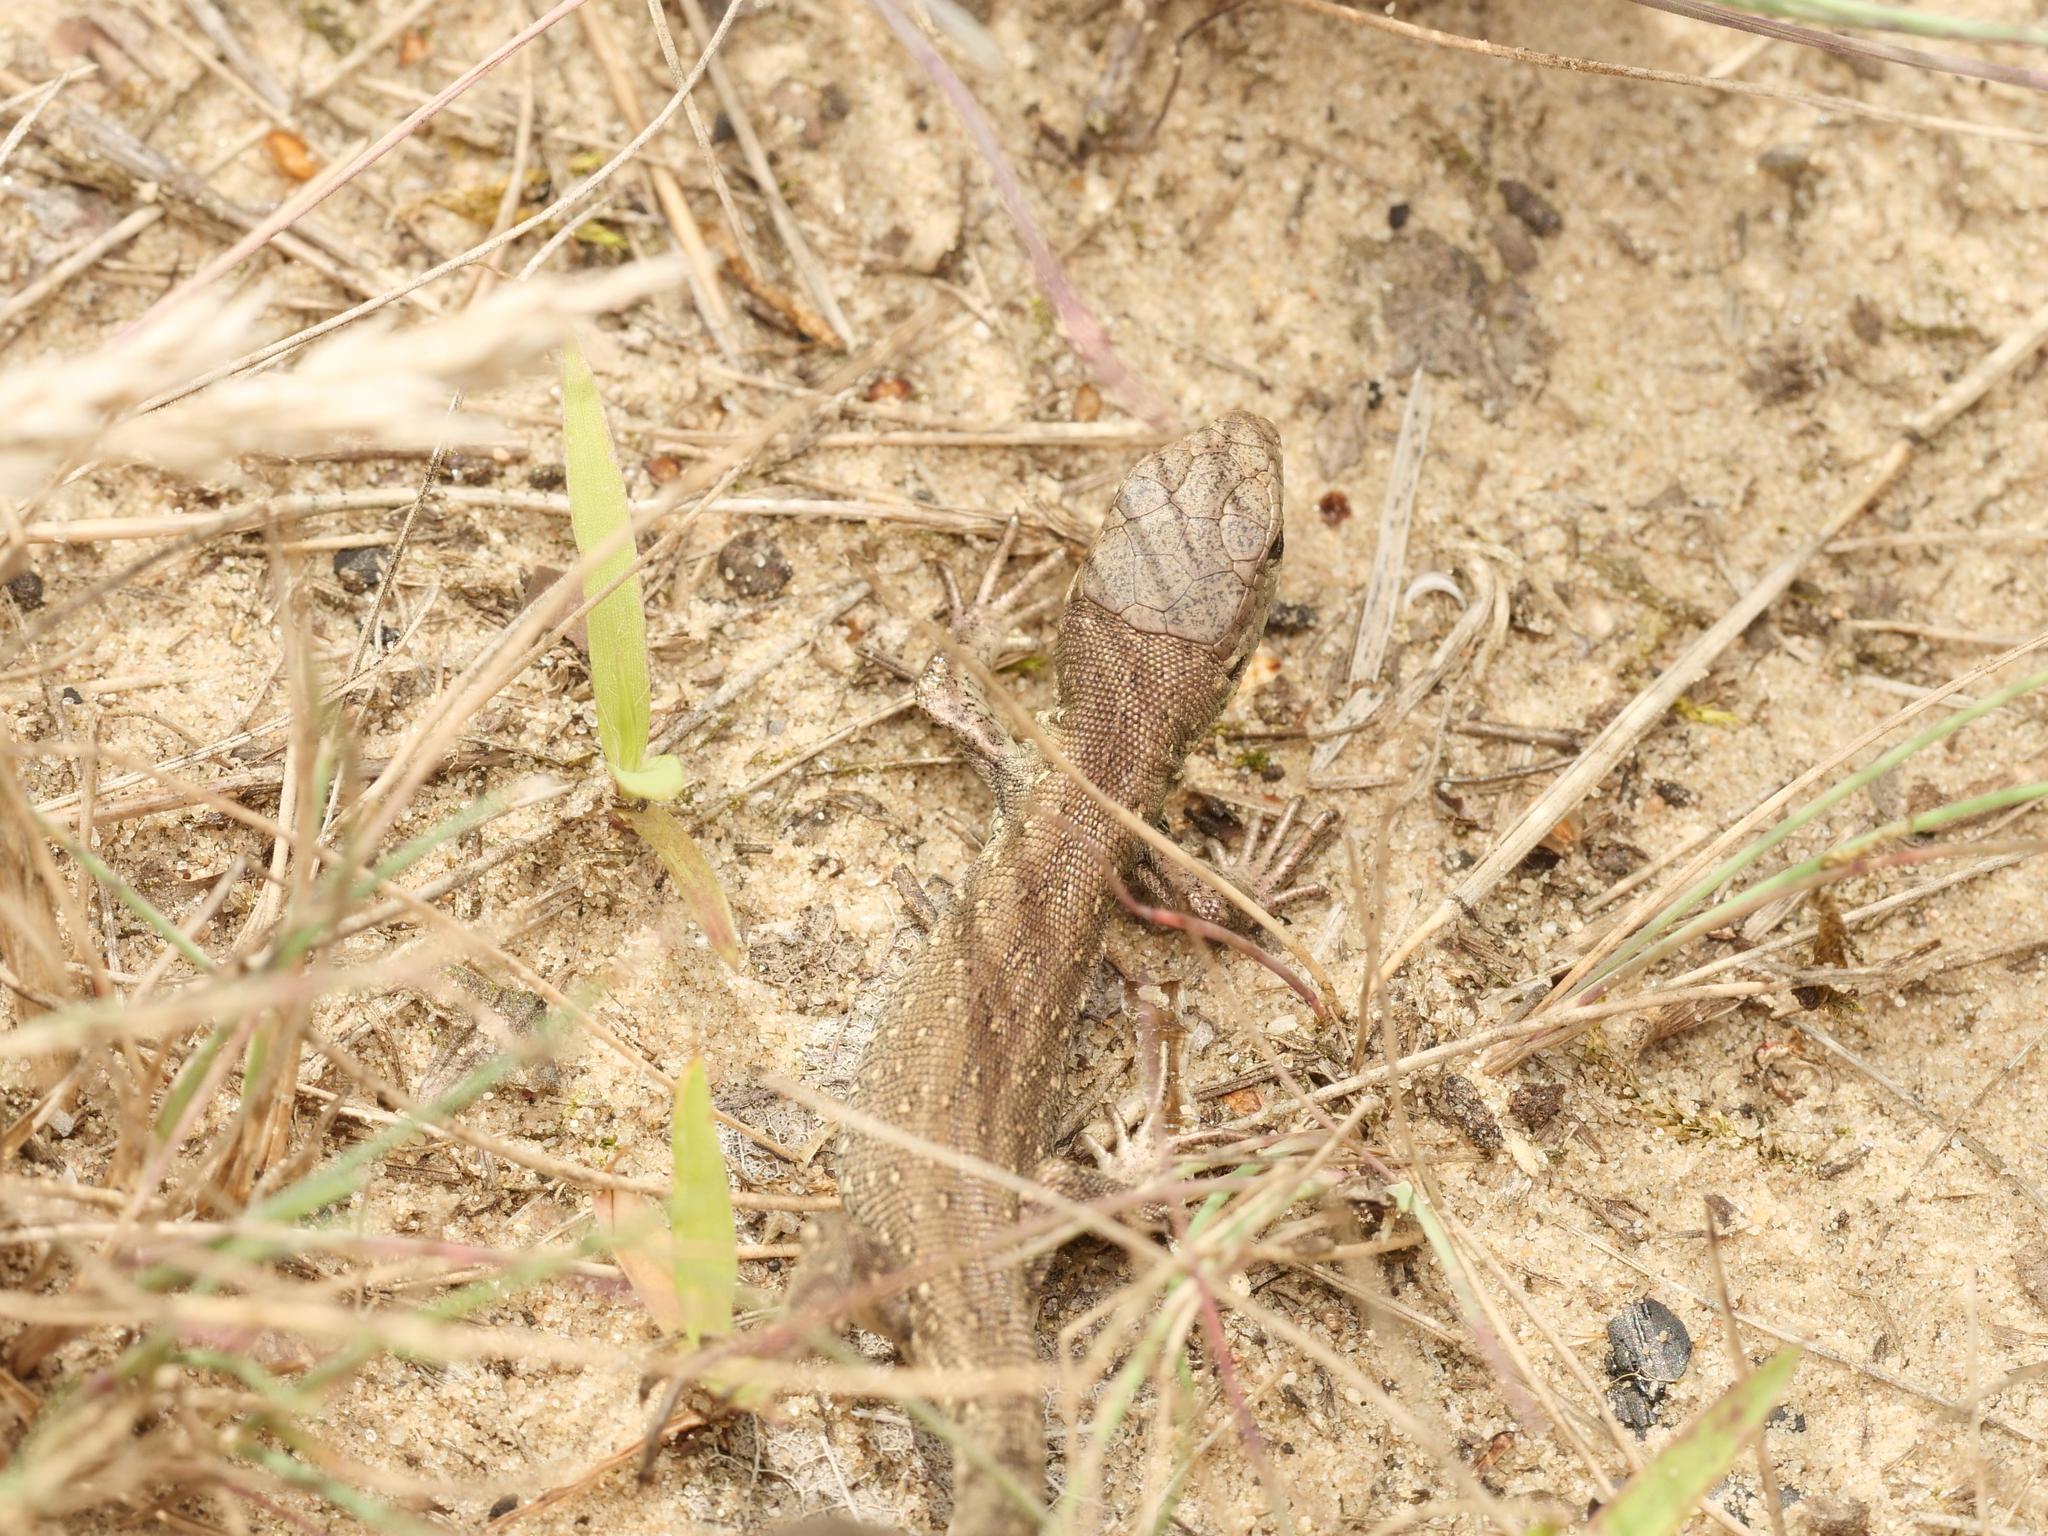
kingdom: Animalia
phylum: Chordata
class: Squamata
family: Lacertidae
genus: Lacerta
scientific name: Lacerta agilis
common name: Sand lizard
